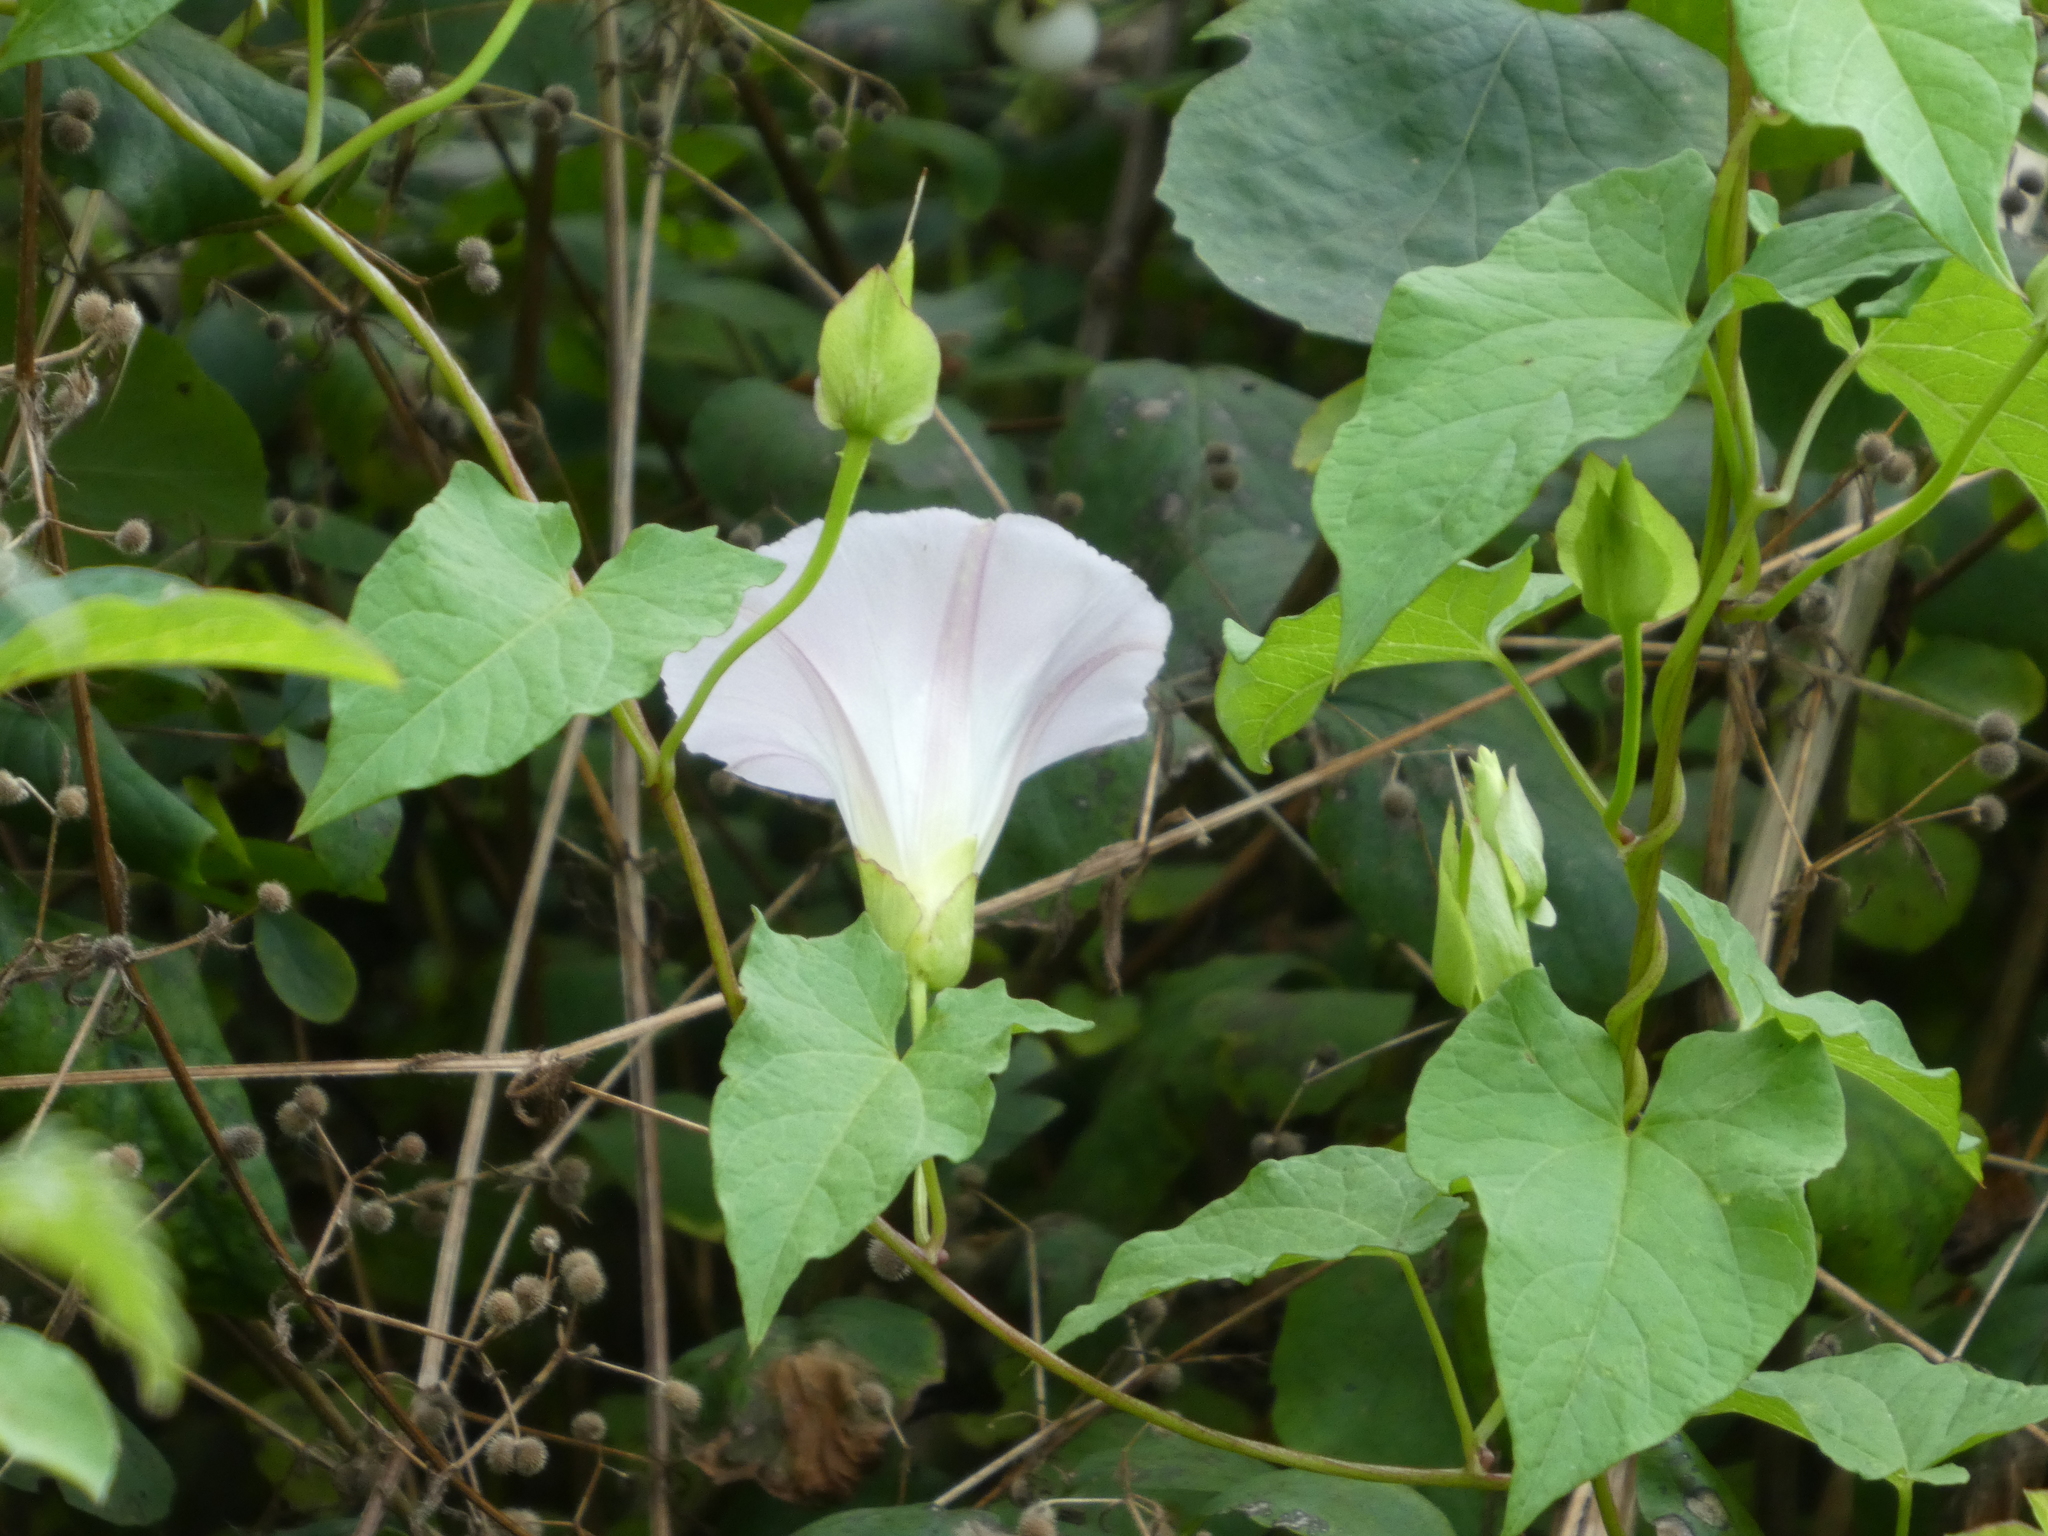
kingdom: Plantae
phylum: Tracheophyta
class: Magnoliopsida
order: Solanales
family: Convolvulaceae
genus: Calystegia
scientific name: Calystegia sepium
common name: Hedge bindweed
